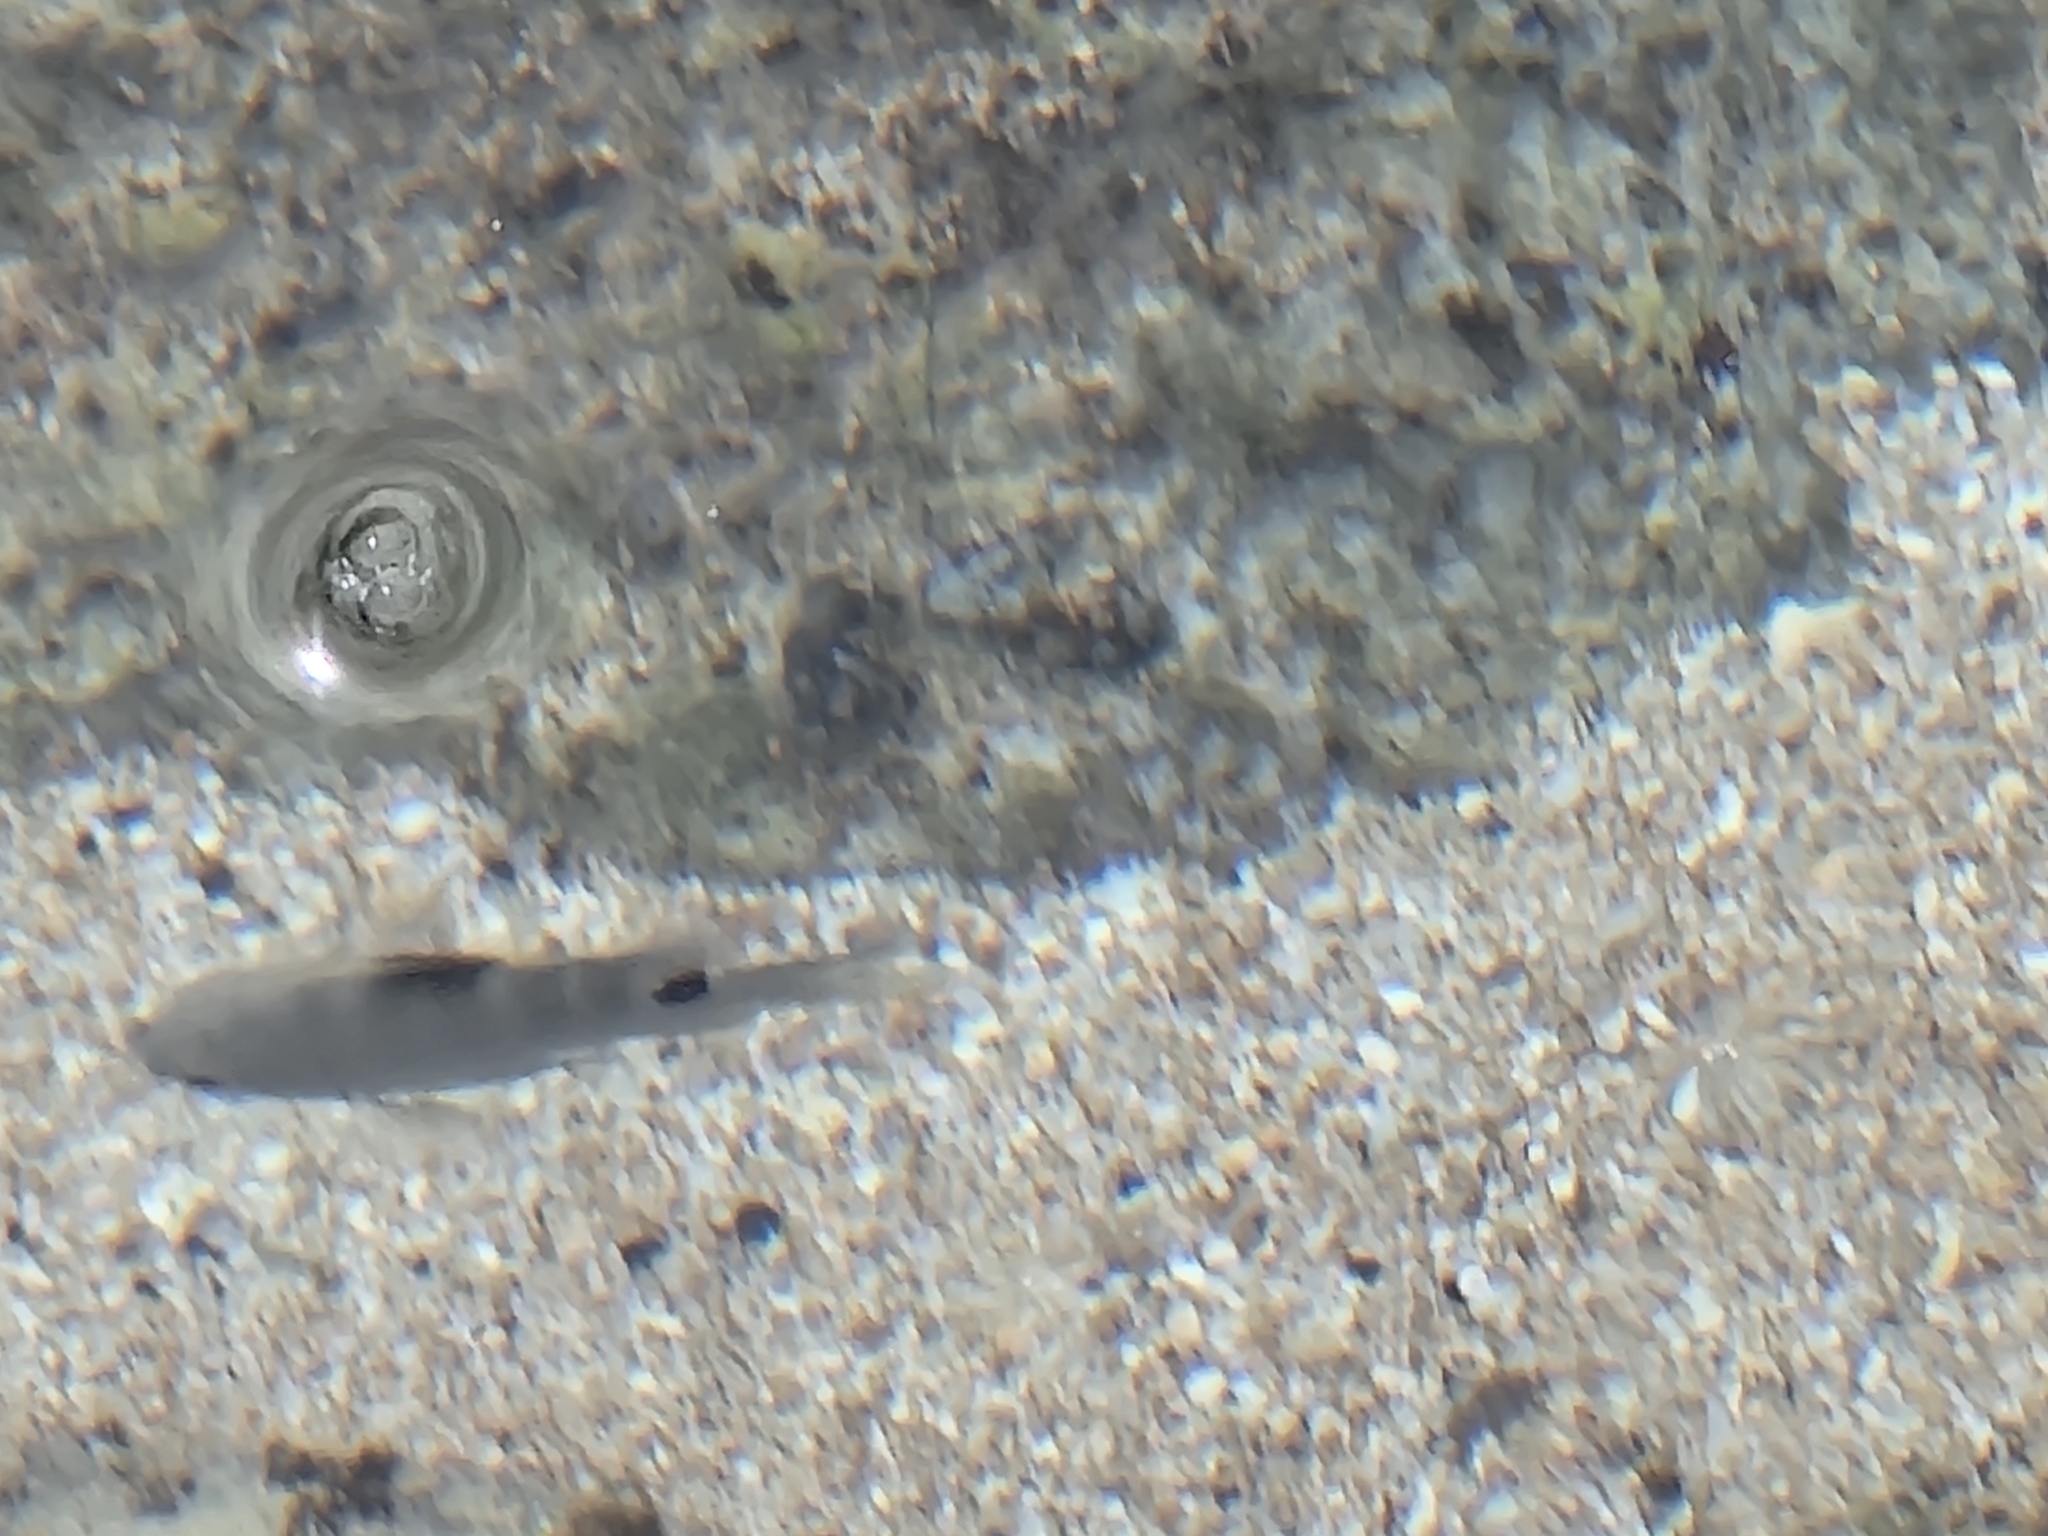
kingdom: Animalia
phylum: Chordata
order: Perciformes
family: Pomacentridae
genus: Abudefduf
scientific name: Abudefduf sordidus
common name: Blackspot sergeant
